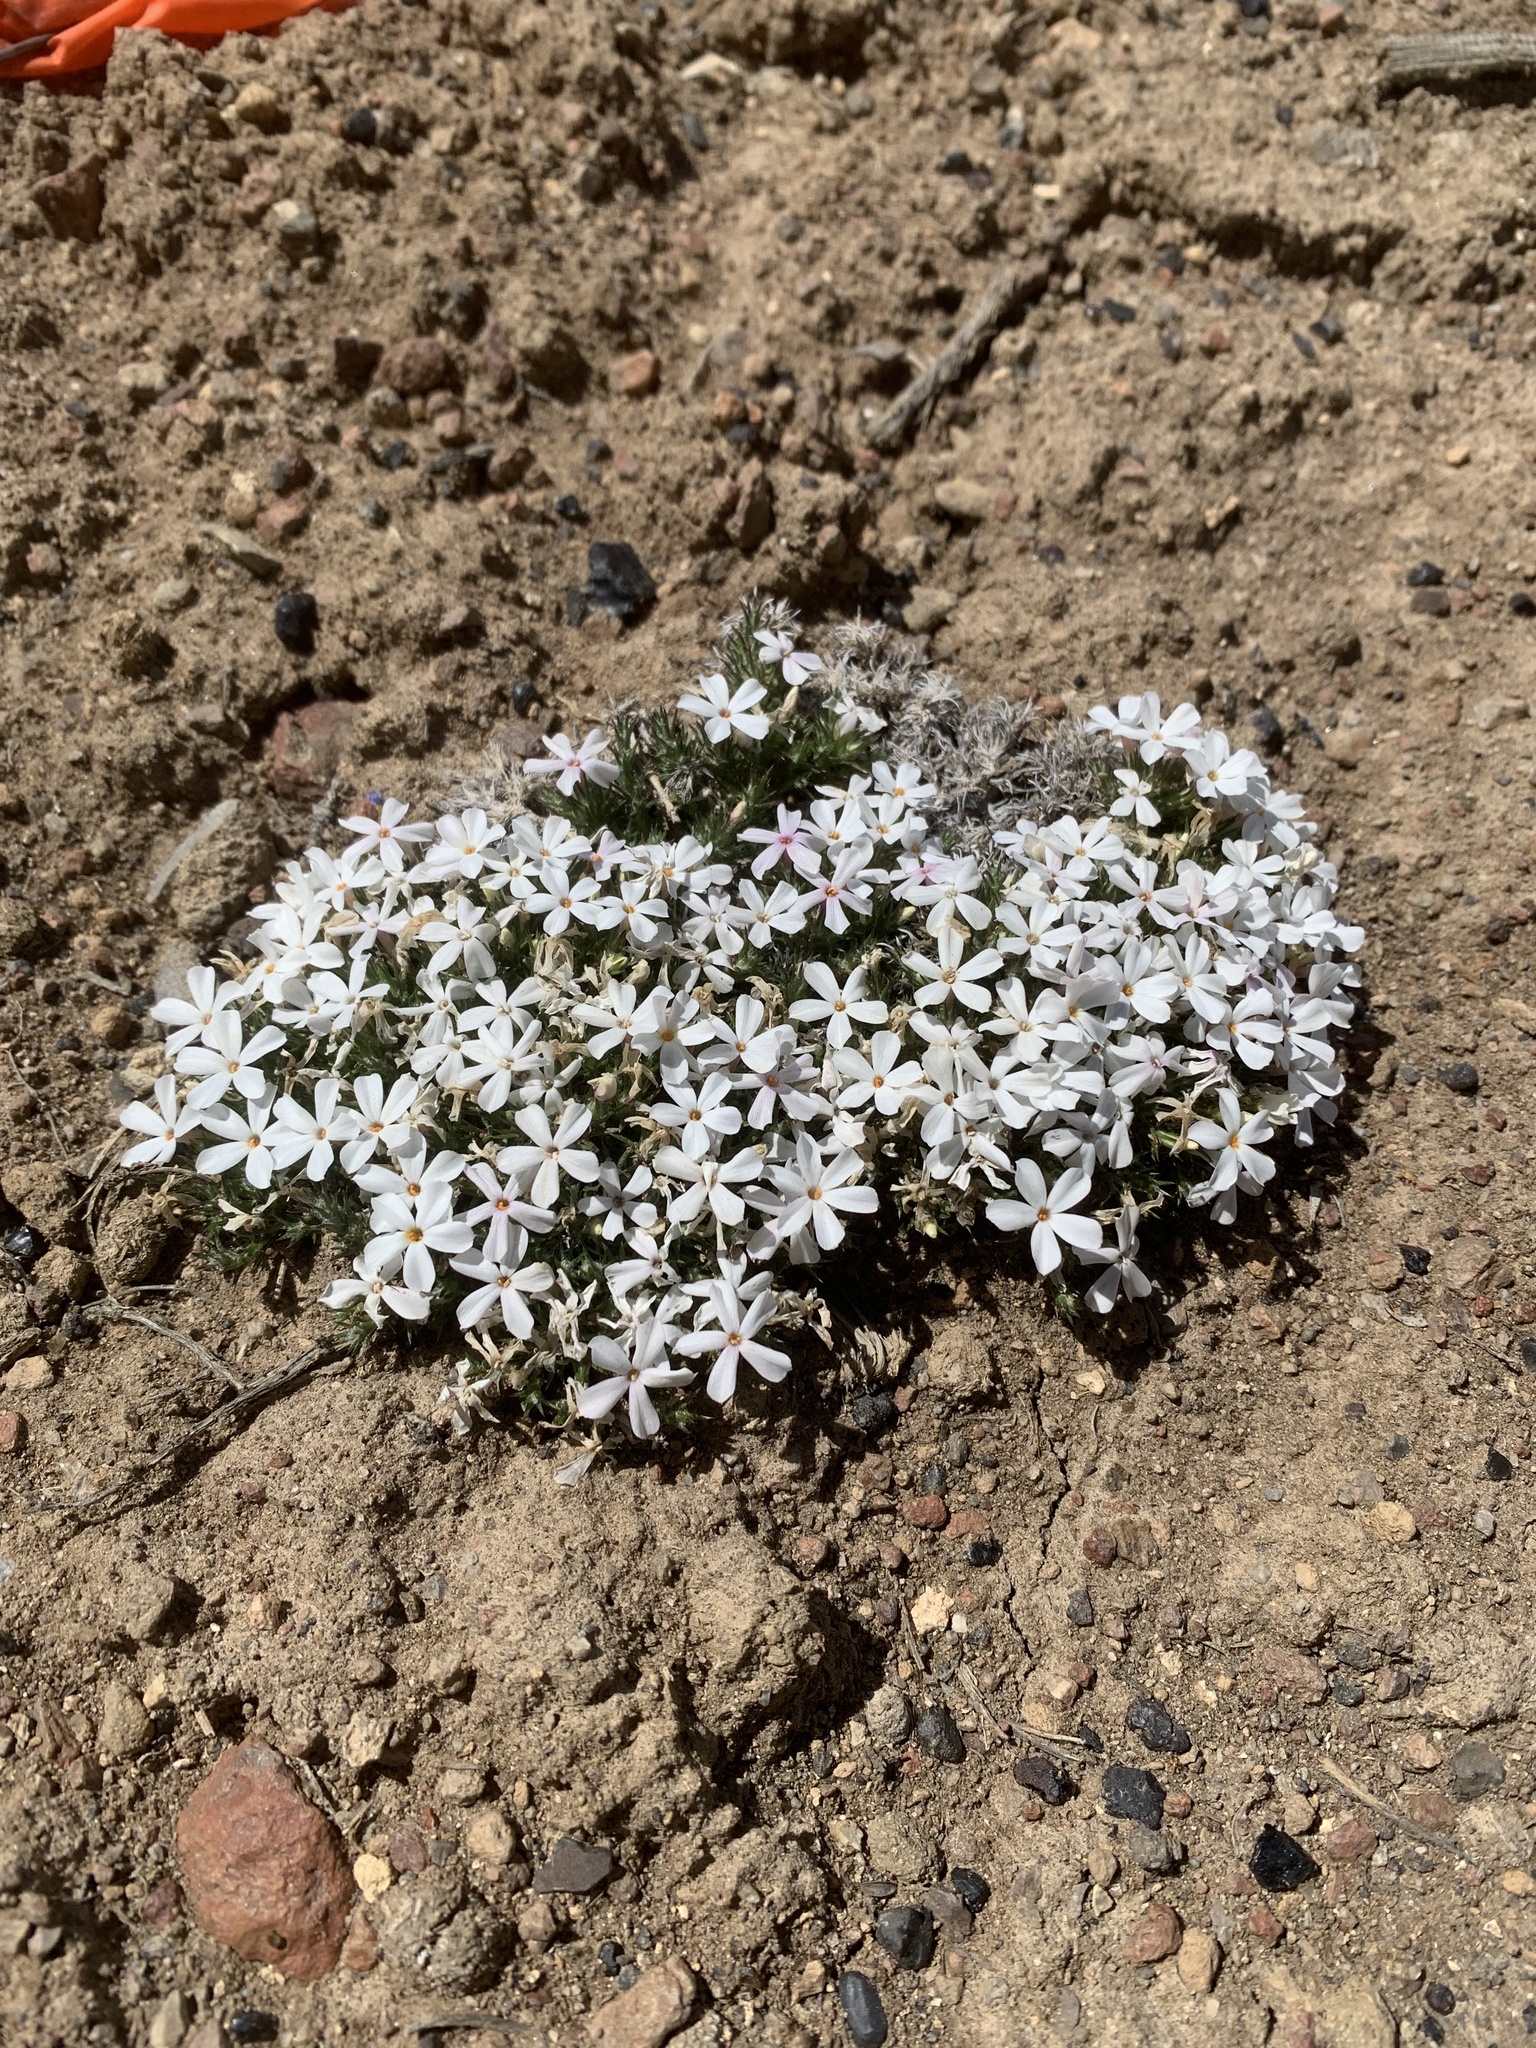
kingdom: Plantae
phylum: Tracheophyta
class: Magnoliopsida
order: Ericales
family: Polemoniaceae
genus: Phlox
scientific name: Phlox hoodii
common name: Moss phlox
